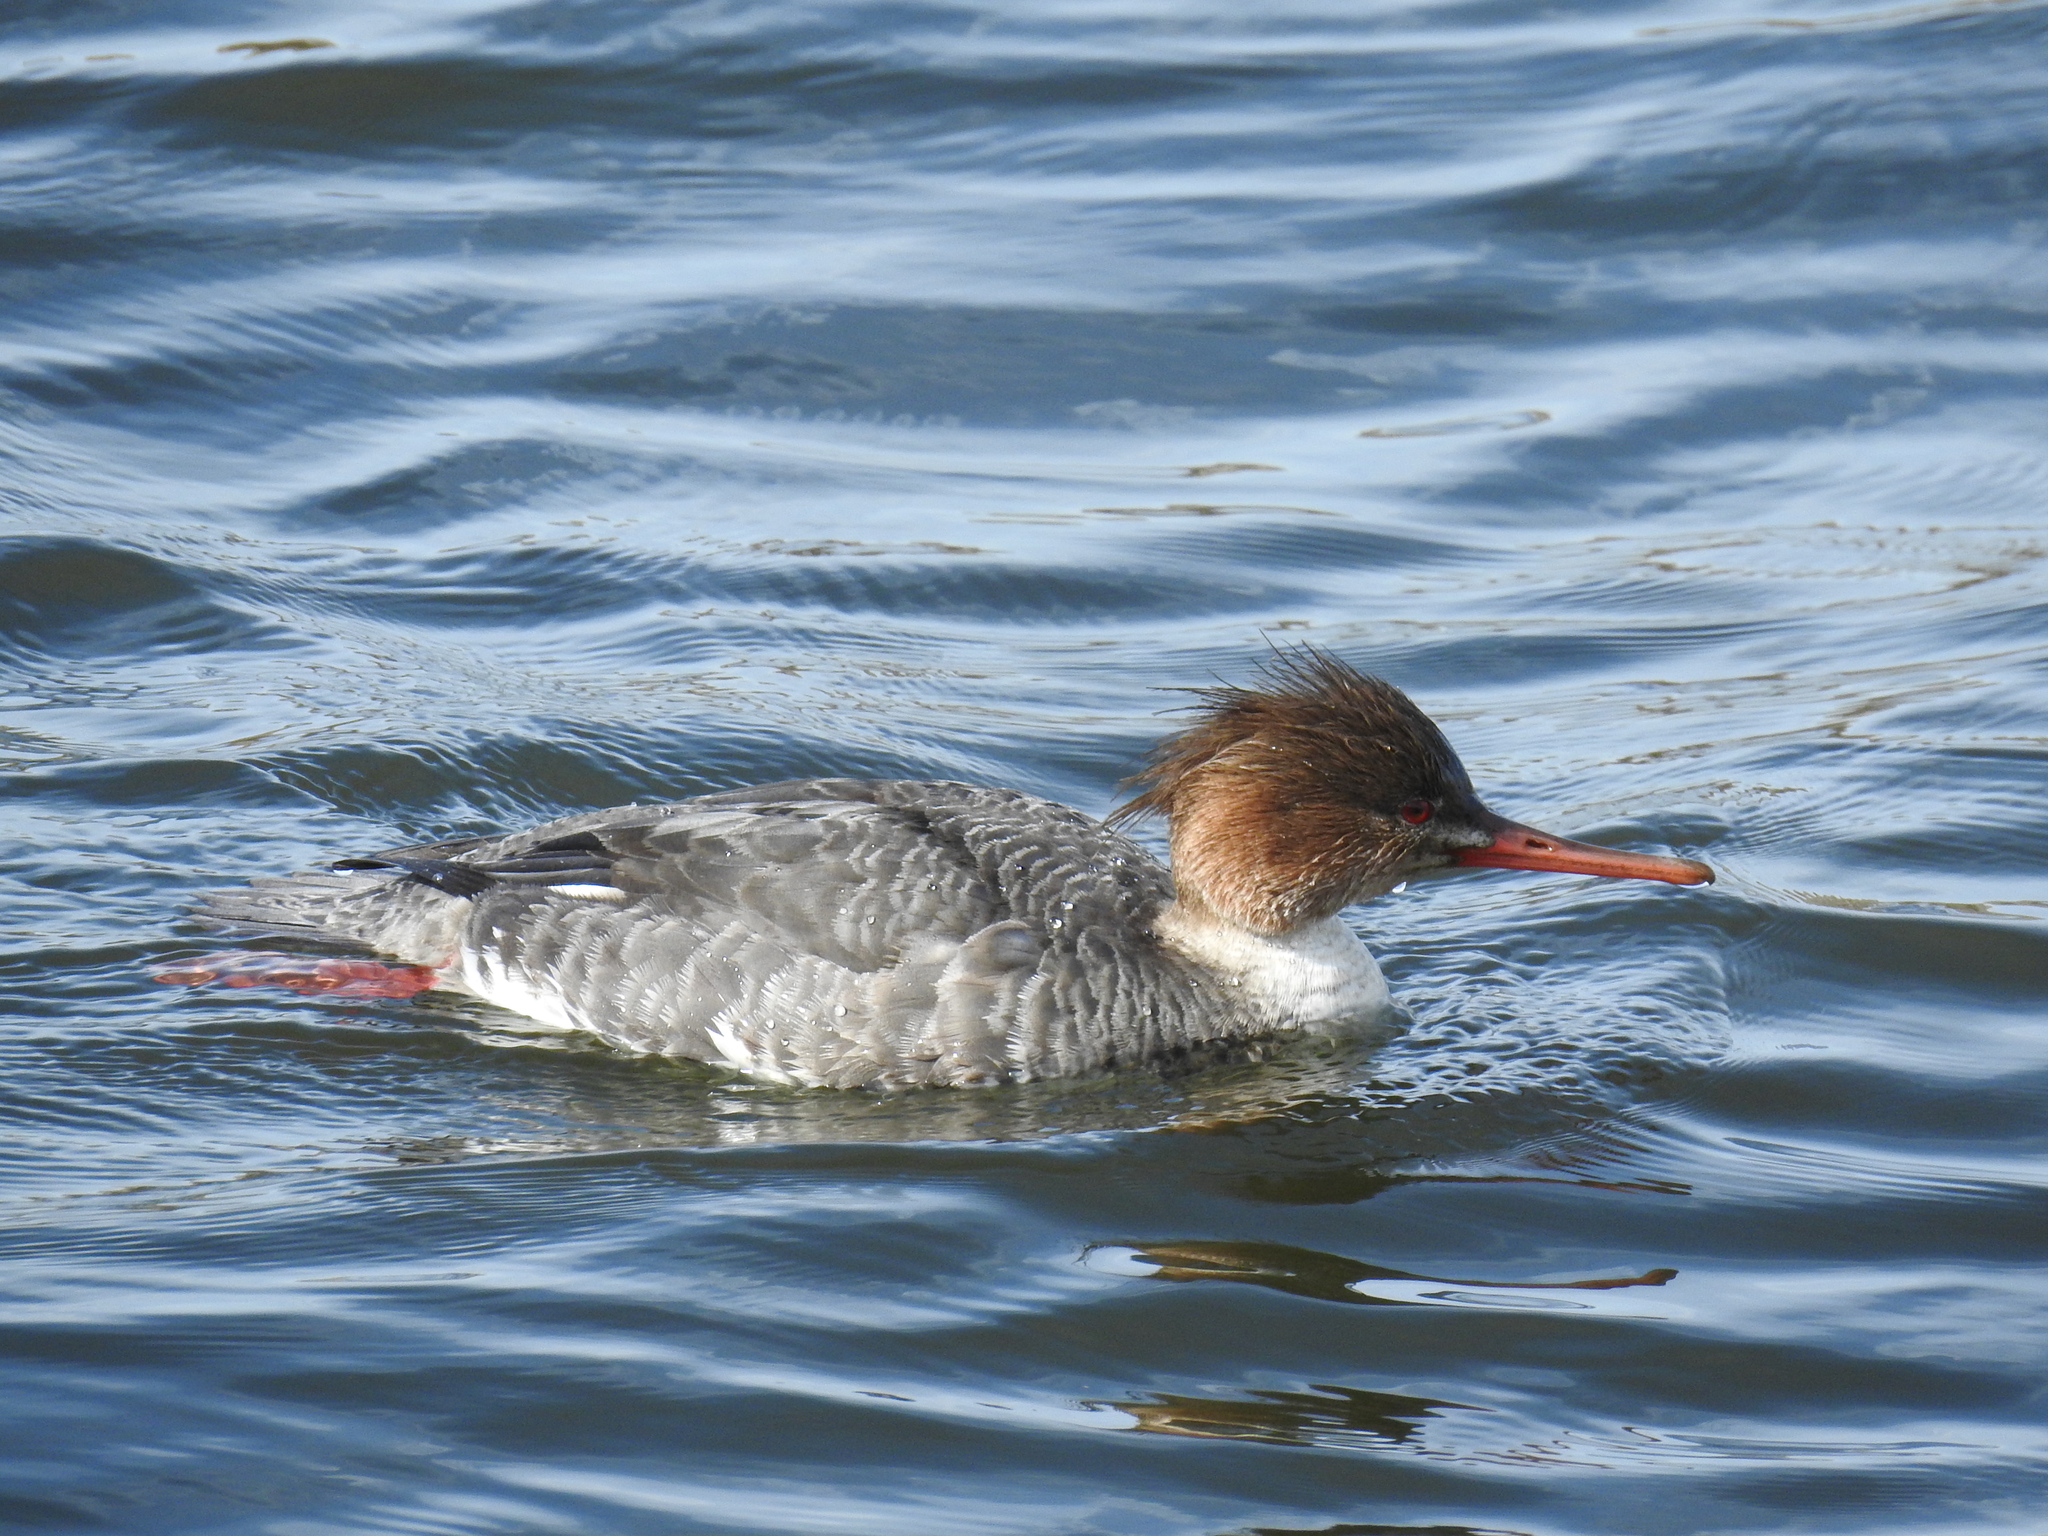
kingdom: Animalia
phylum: Chordata
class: Aves
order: Anseriformes
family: Anatidae
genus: Mergus
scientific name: Mergus serrator
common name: Red-breasted merganser
